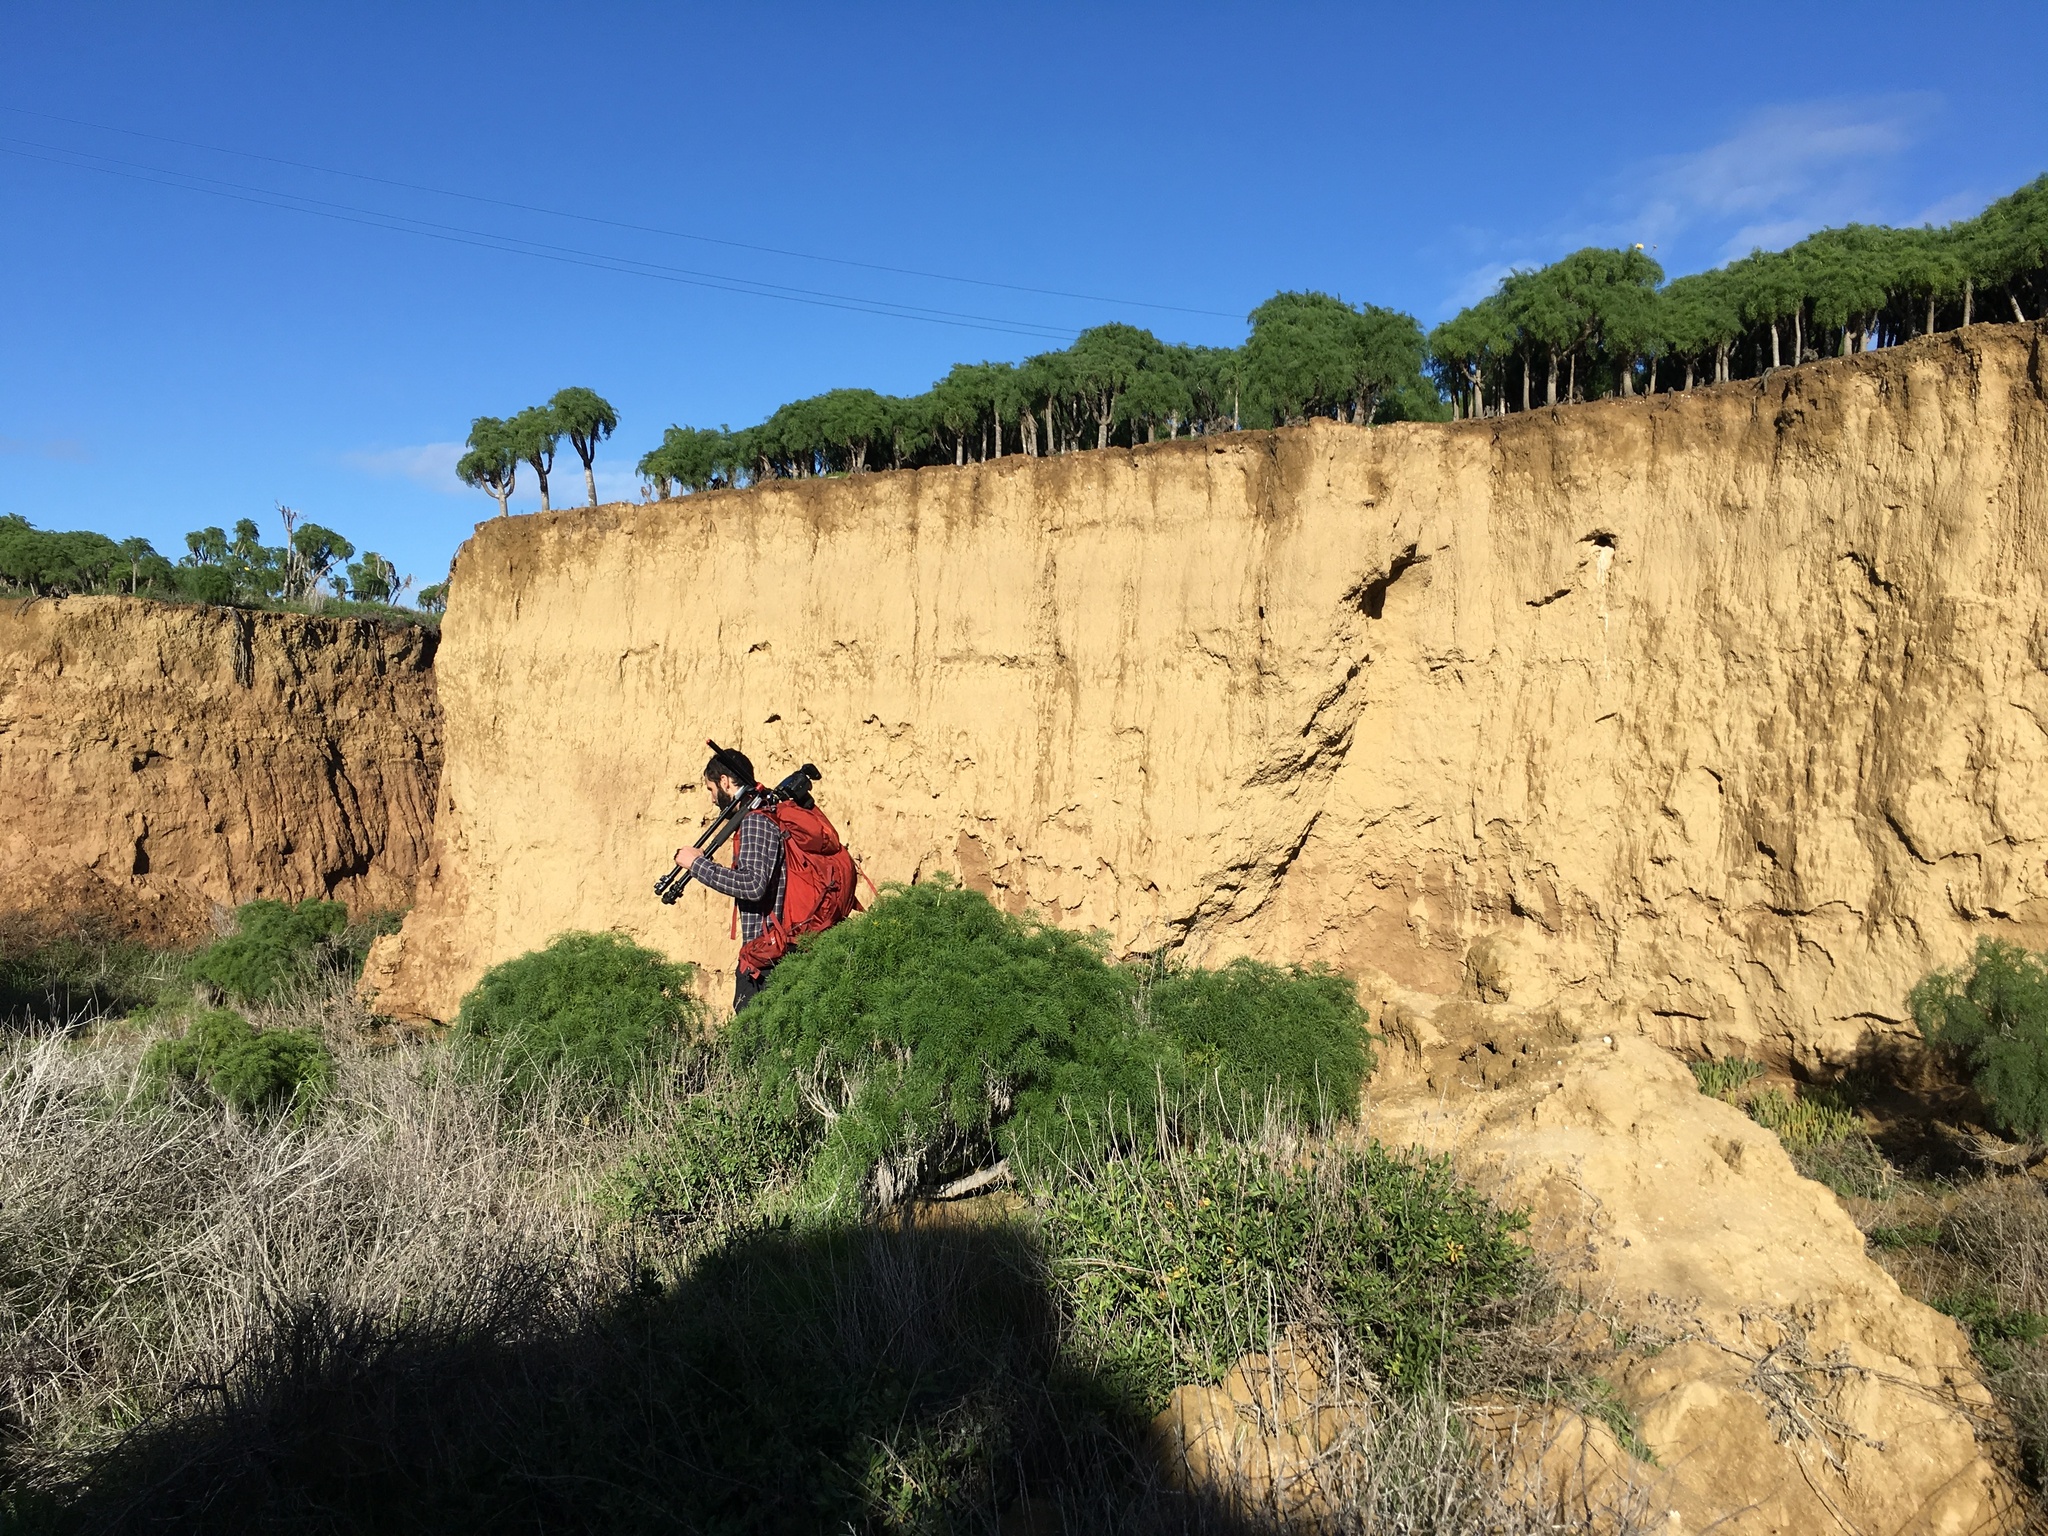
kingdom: Plantae
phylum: Tracheophyta
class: Magnoliopsida
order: Asterales
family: Asteraceae
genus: Coreopsis
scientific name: Coreopsis gigantea
